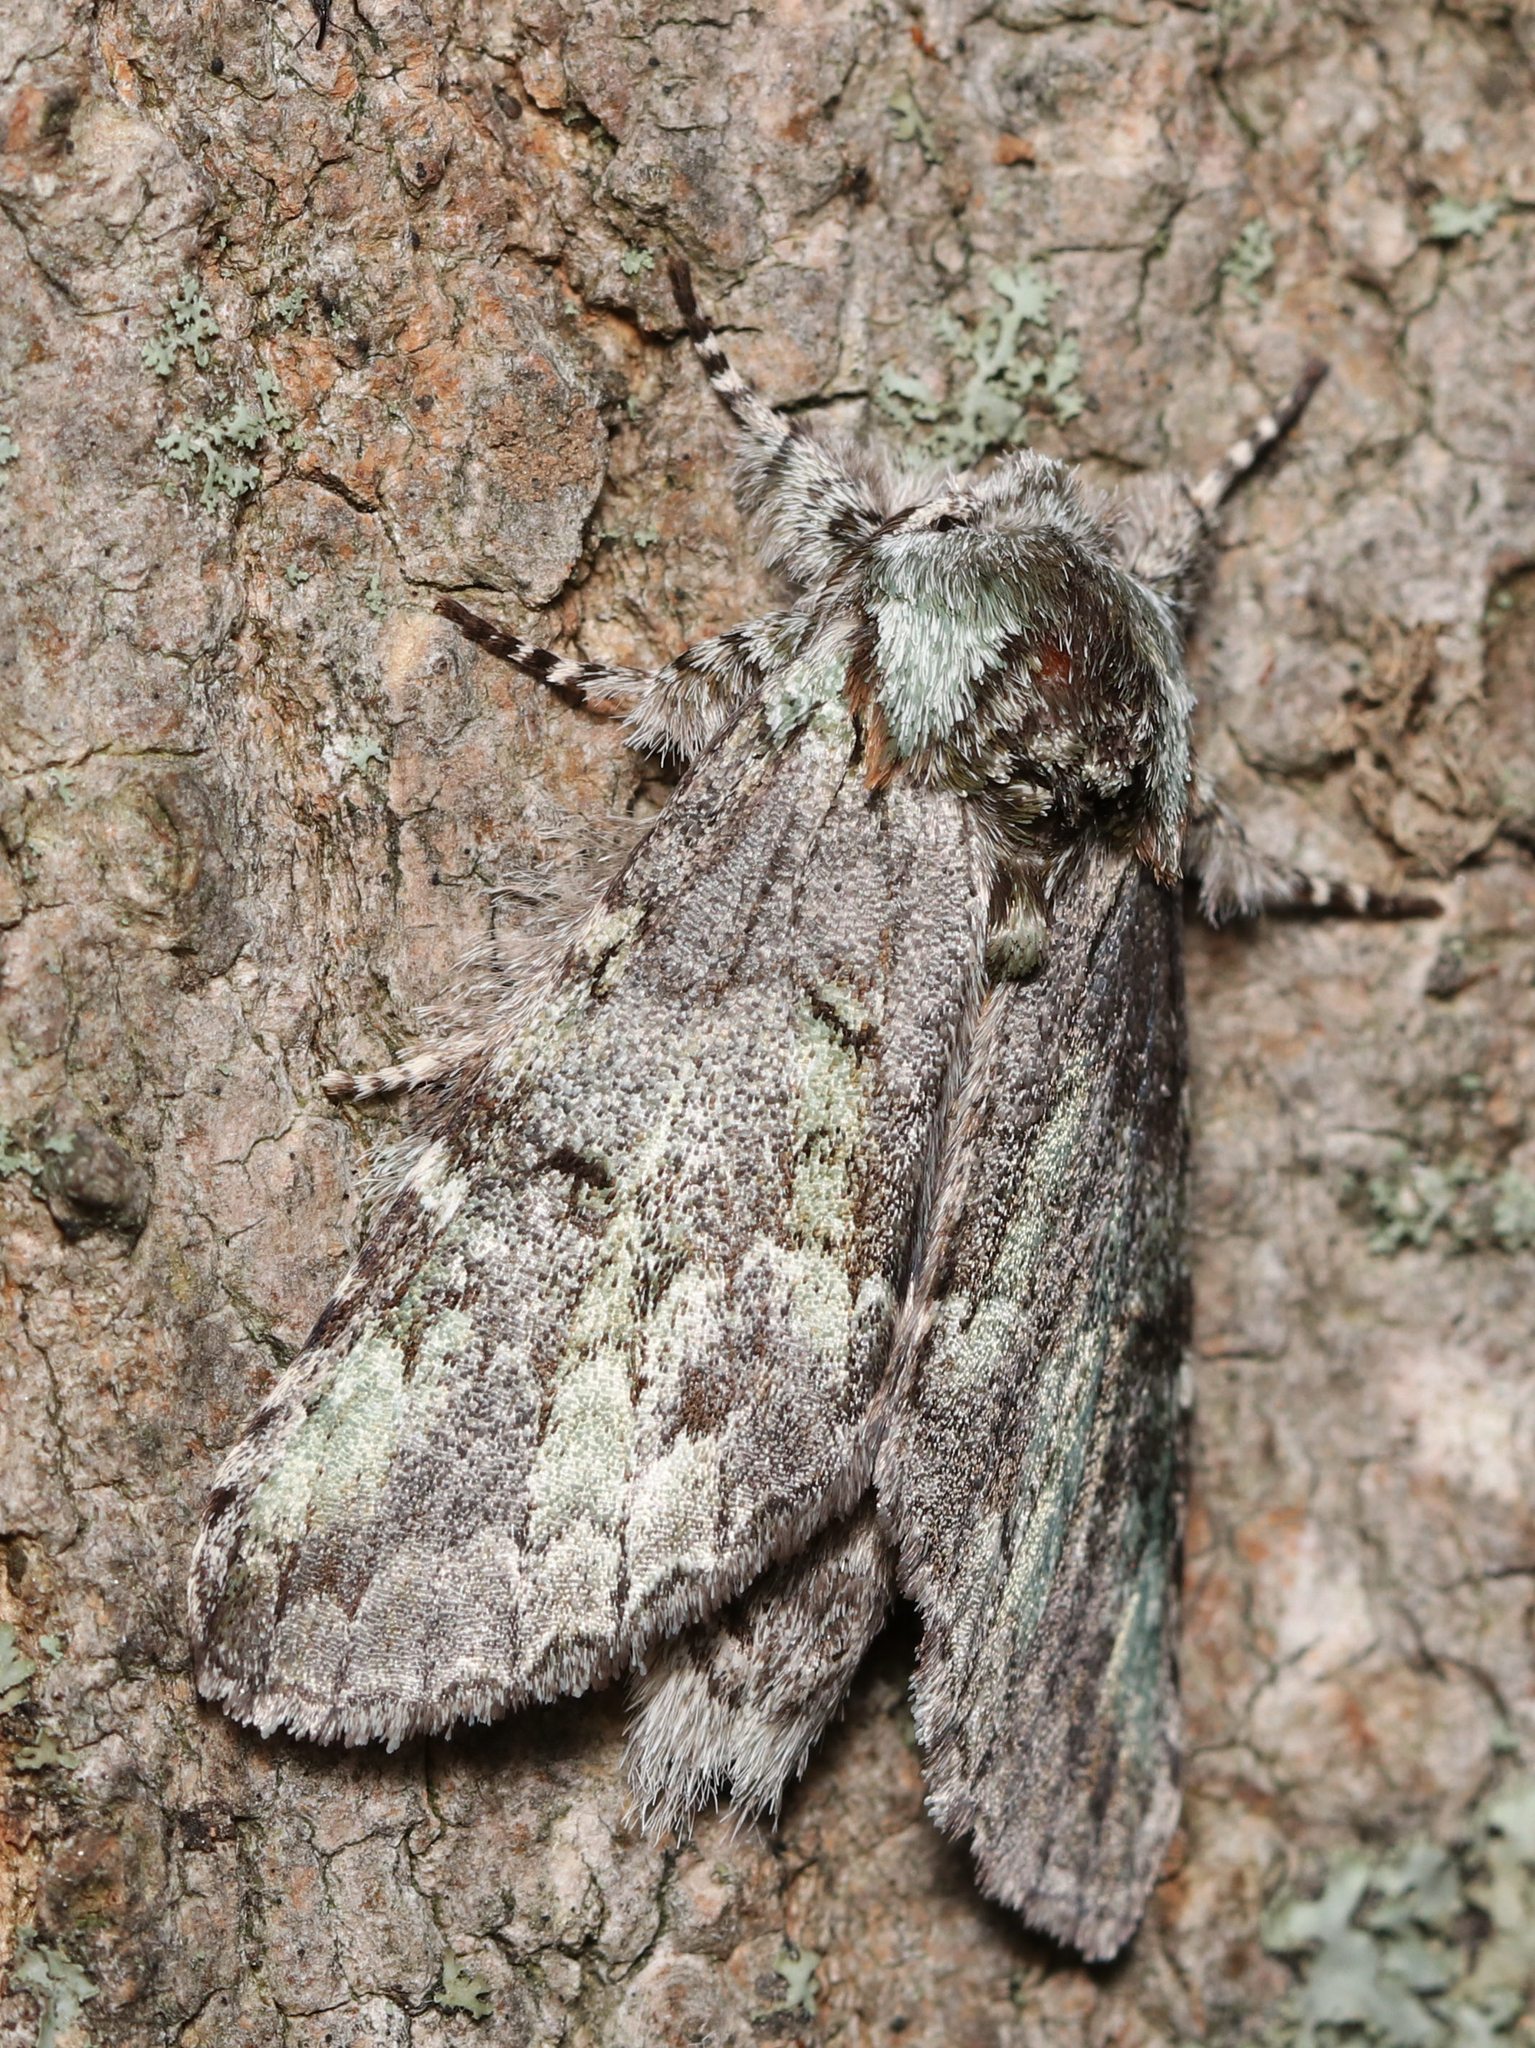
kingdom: Animalia
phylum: Arthropoda
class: Insecta
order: Lepidoptera
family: Notodontidae
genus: Macrurocampa
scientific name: Macrurocampa marthesia
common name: Mottled prominent
